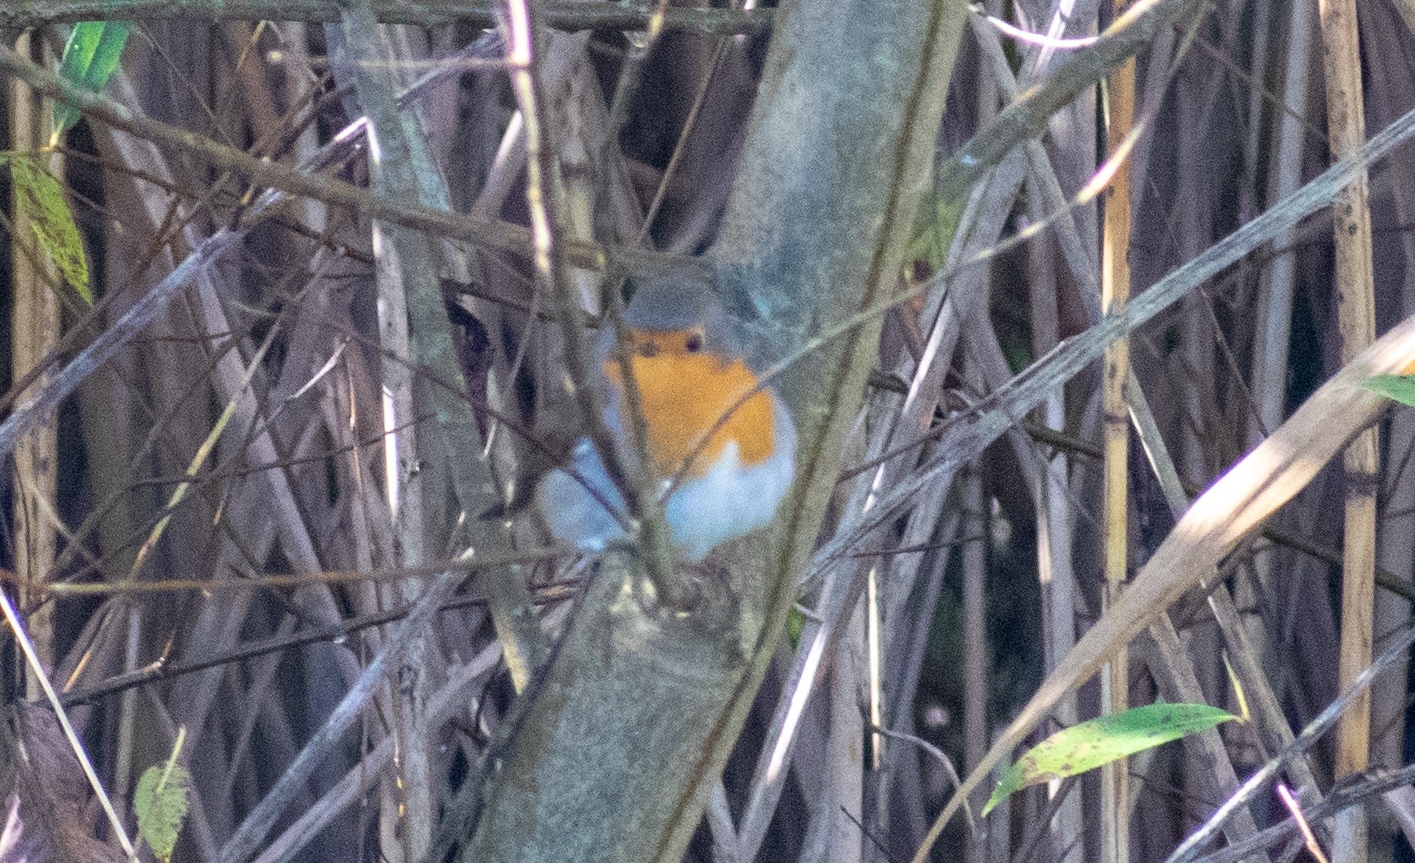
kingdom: Animalia
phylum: Chordata
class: Aves
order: Passeriformes
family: Muscicapidae
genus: Erithacus
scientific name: Erithacus rubecula
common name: European robin
